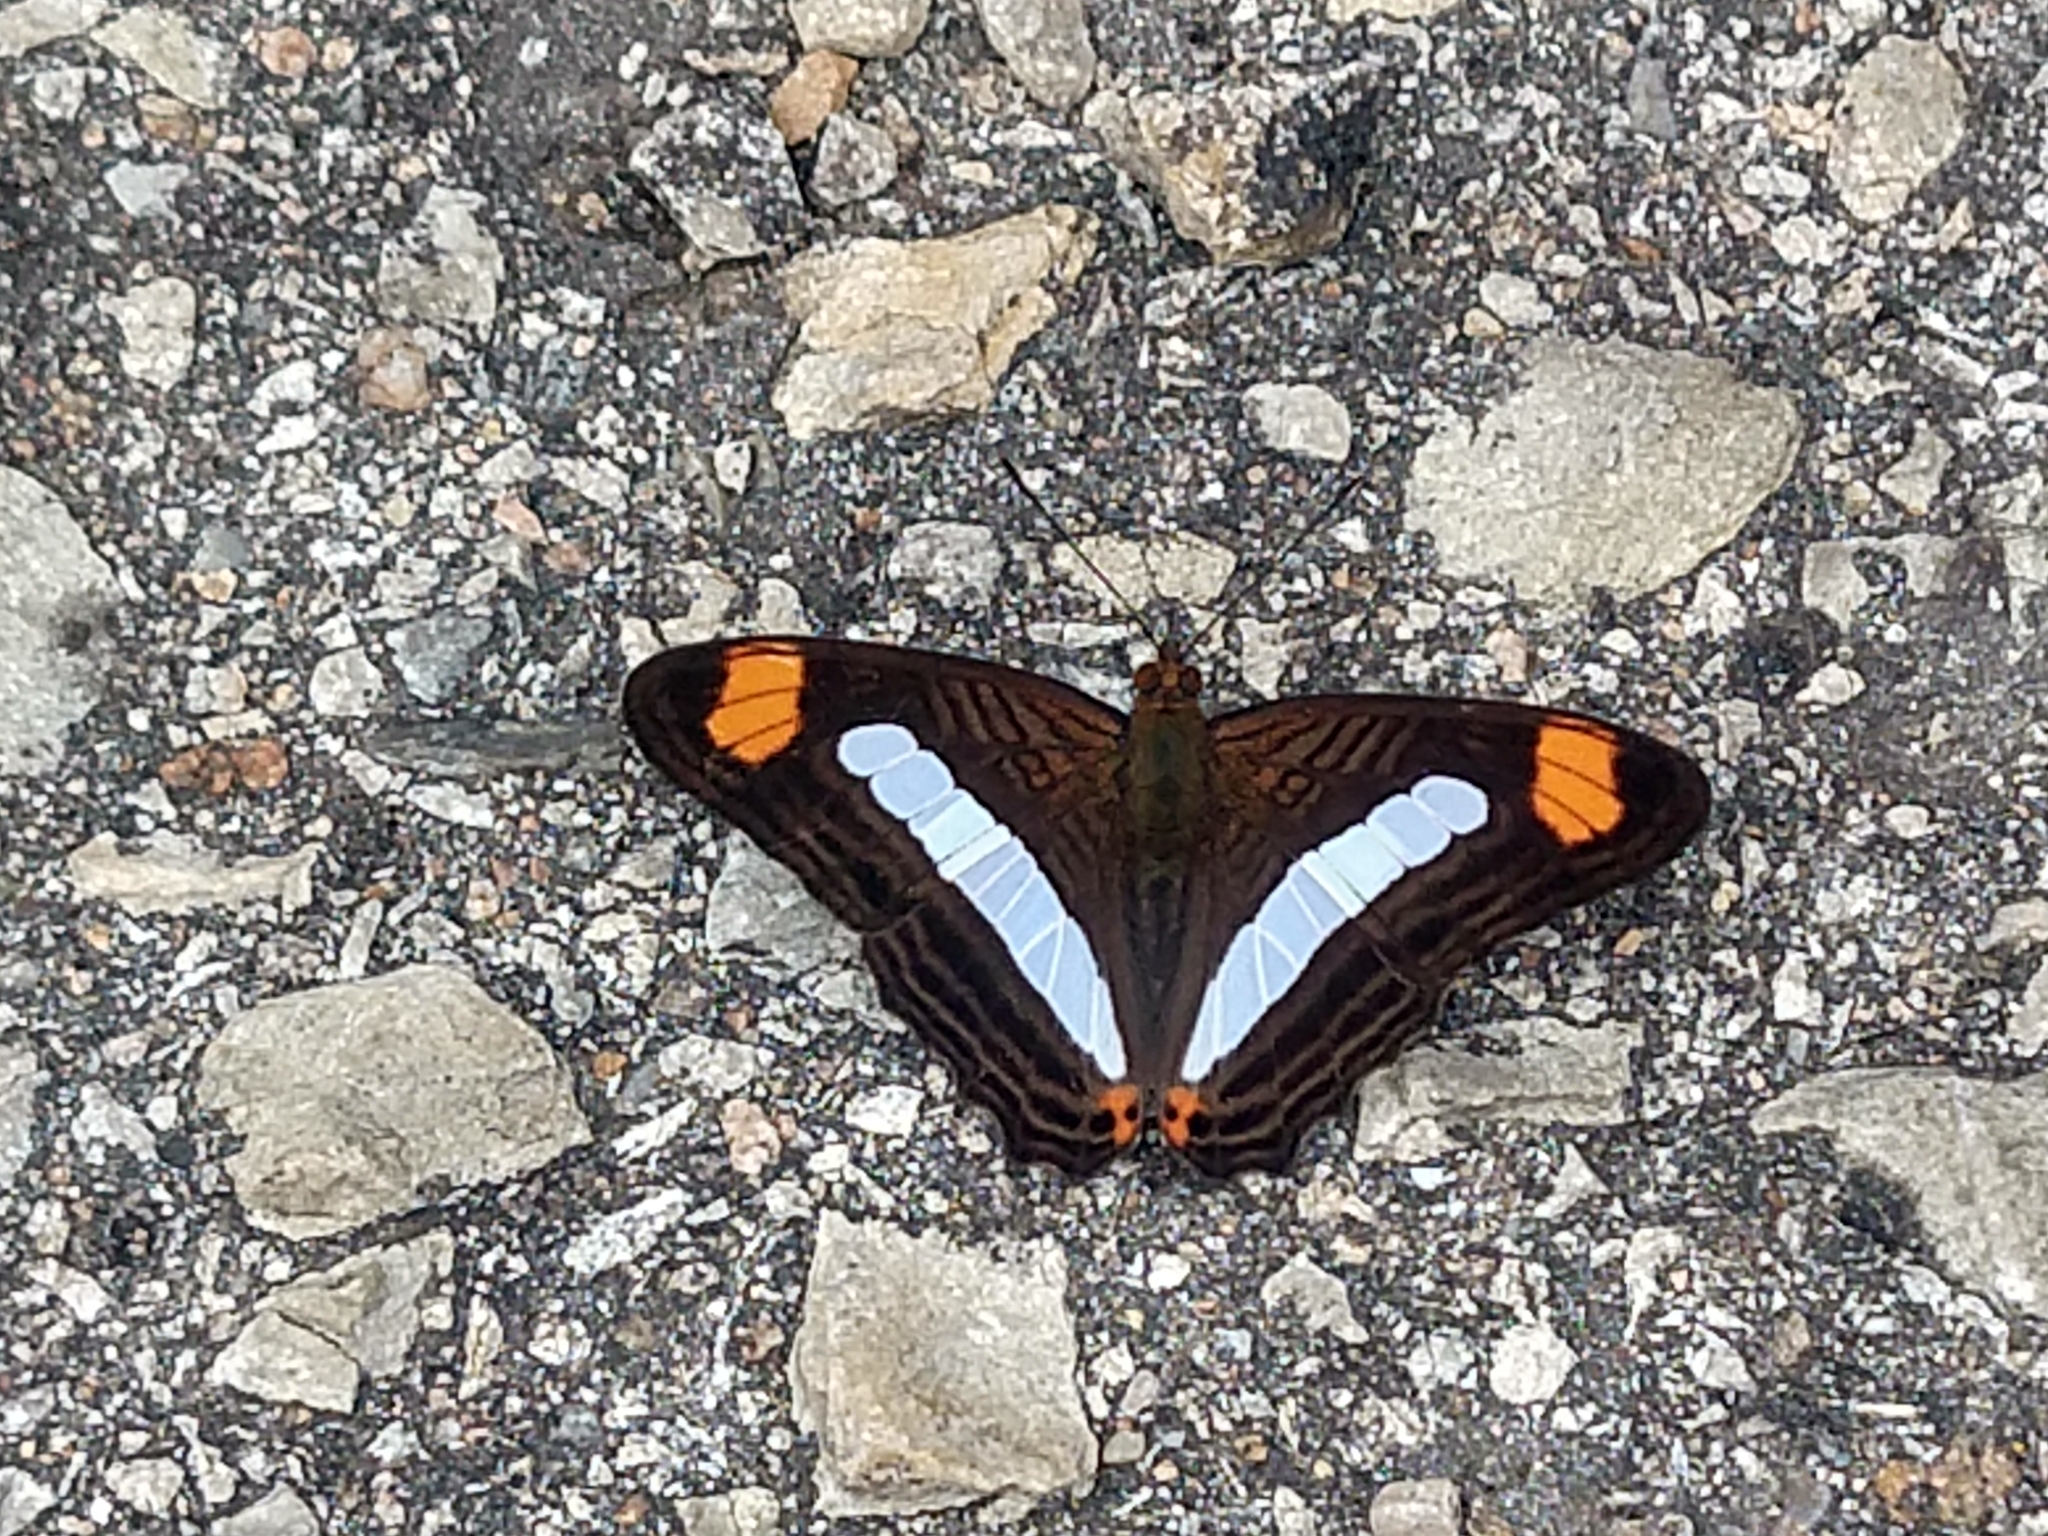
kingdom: Animalia
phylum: Arthropoda
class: Insecta
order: Lepidoptera
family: Nymphalidae
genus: Limenitis
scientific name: Limenitis iphiclus
